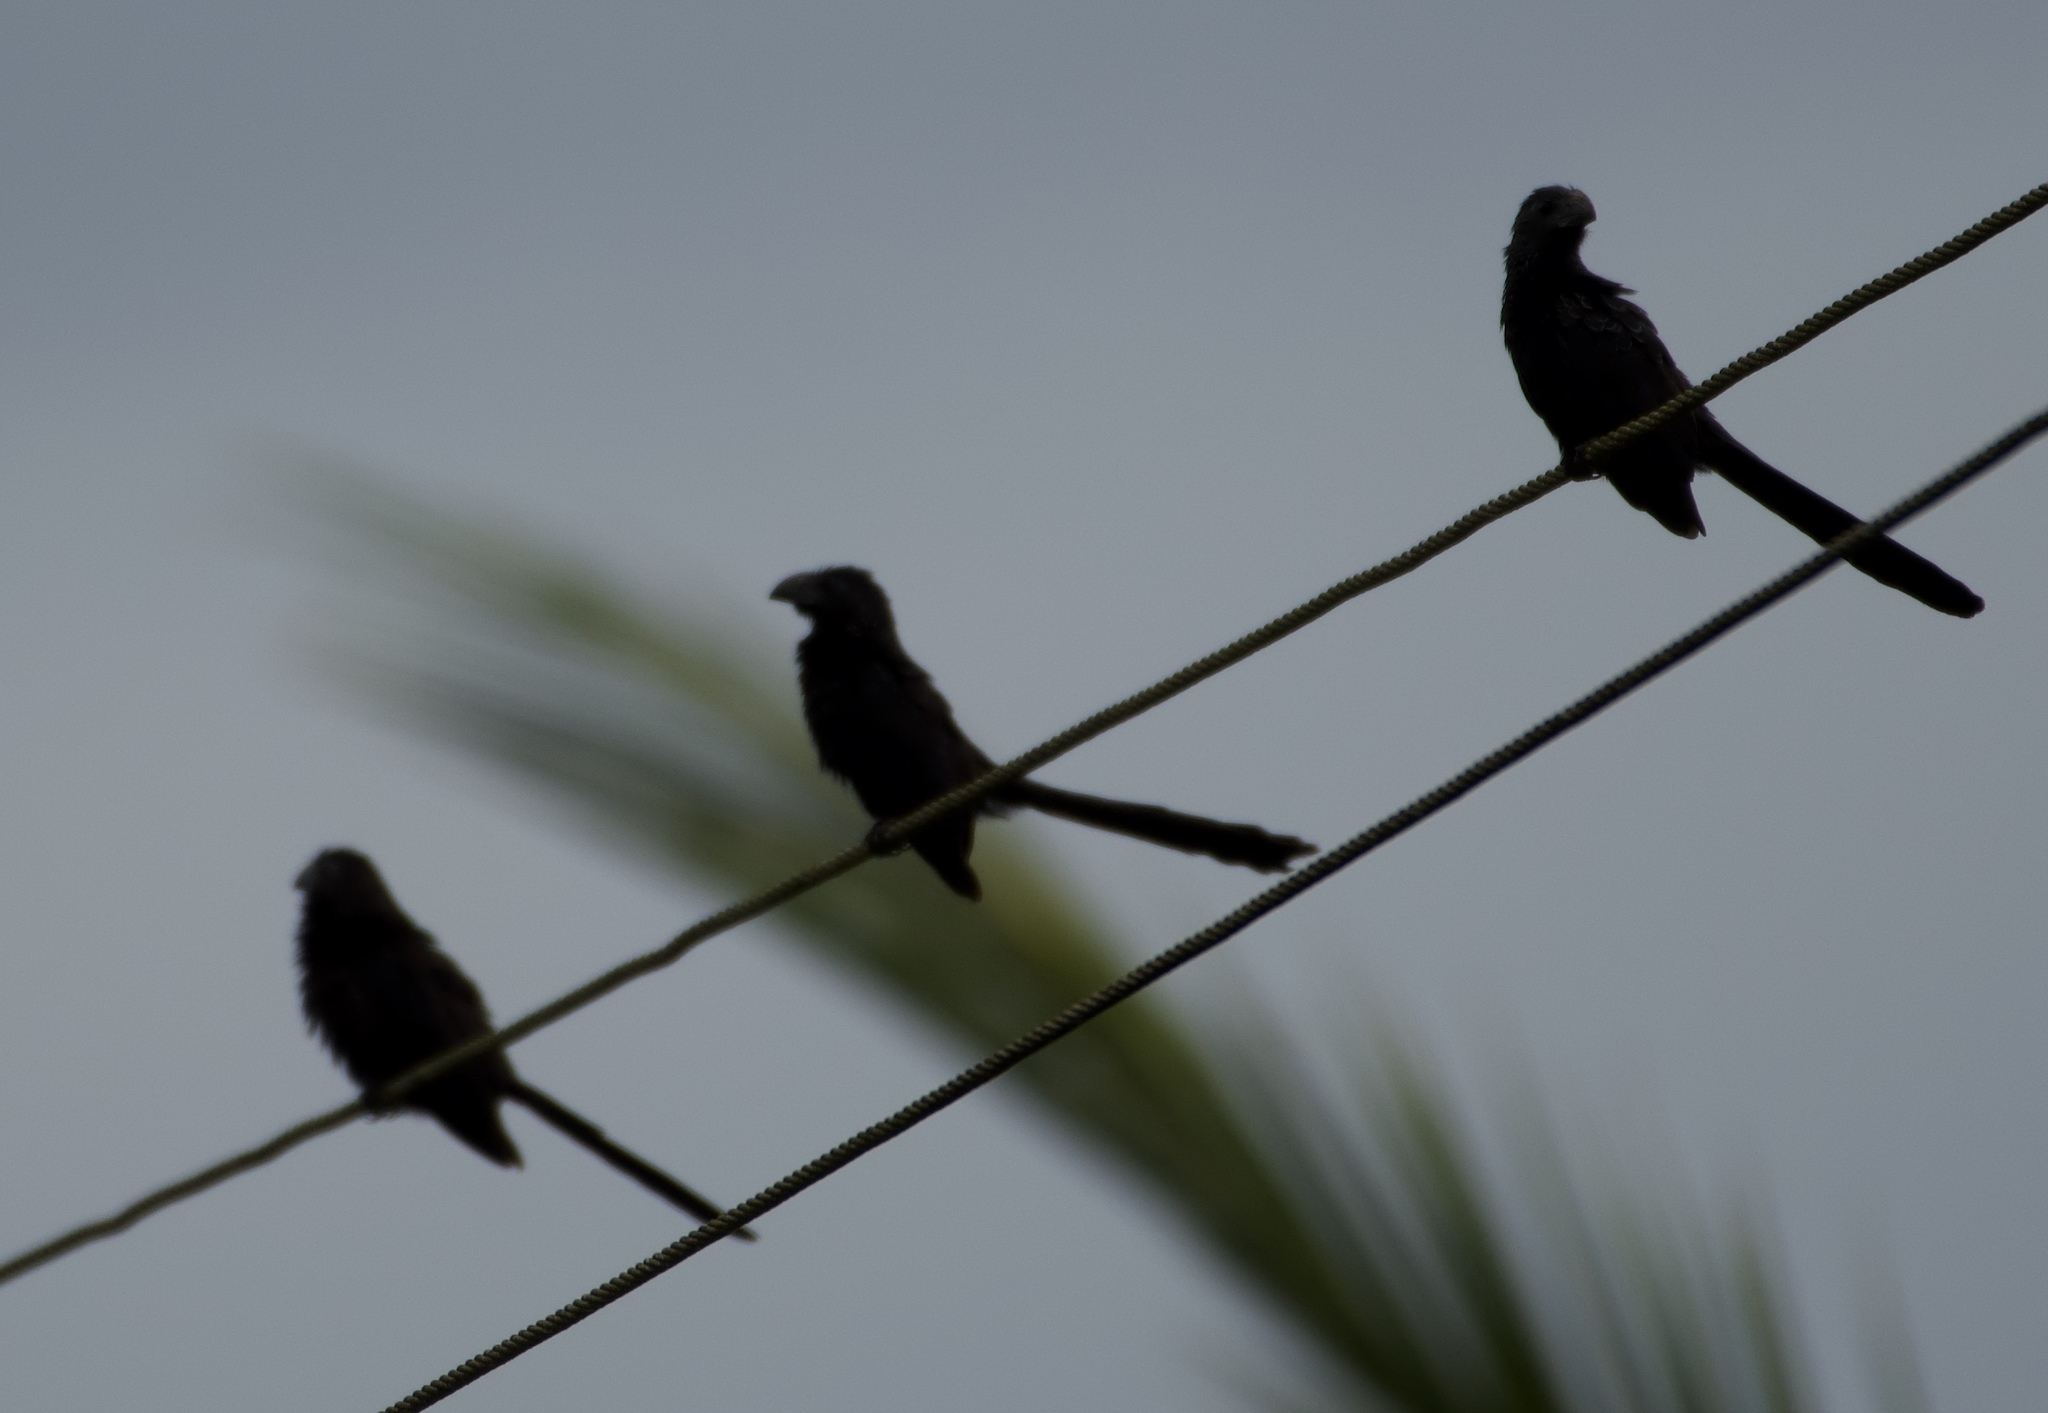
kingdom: Animalia
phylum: Chordata
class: Aves
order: Cuculiformes
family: Cuculidae
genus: Crotophaga
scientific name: Crotophaga sulcirostris
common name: Groove-billed ani
